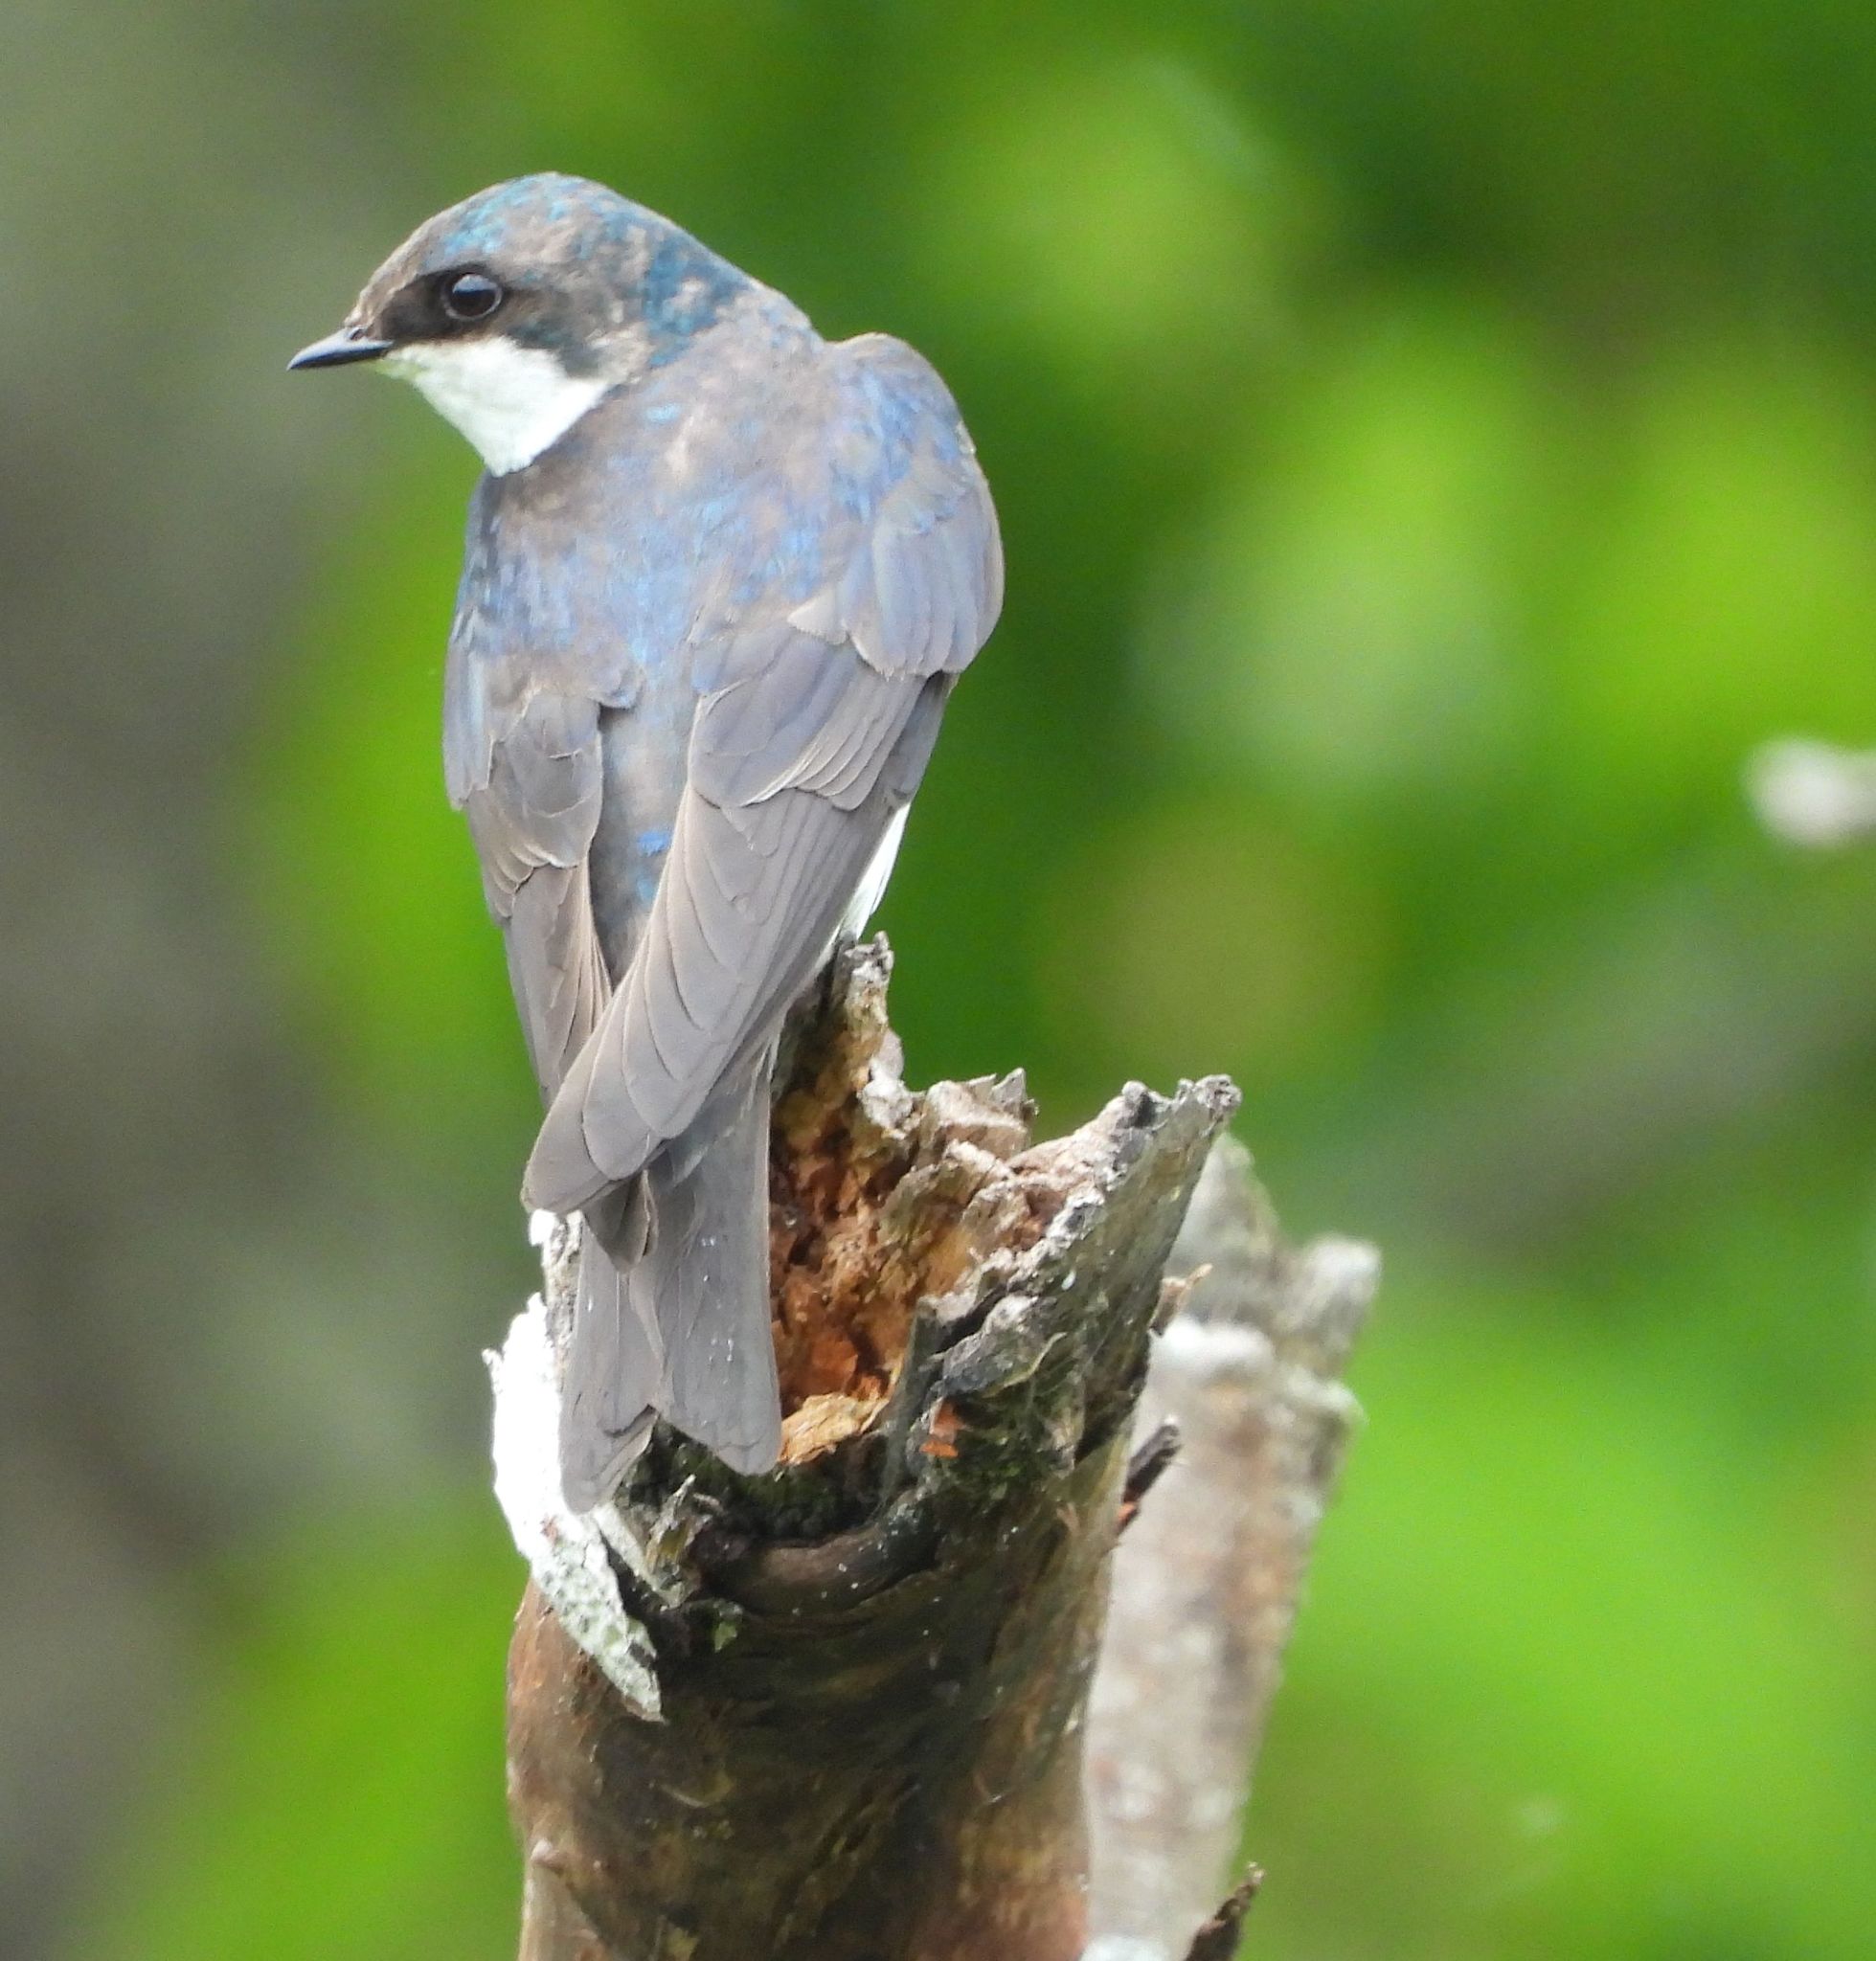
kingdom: Animalia
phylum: Chordata
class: Aves
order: Passeriformes
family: Hirundinidae
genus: Tachycineta
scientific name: Tachycineta bicolor
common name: Tree swallow
